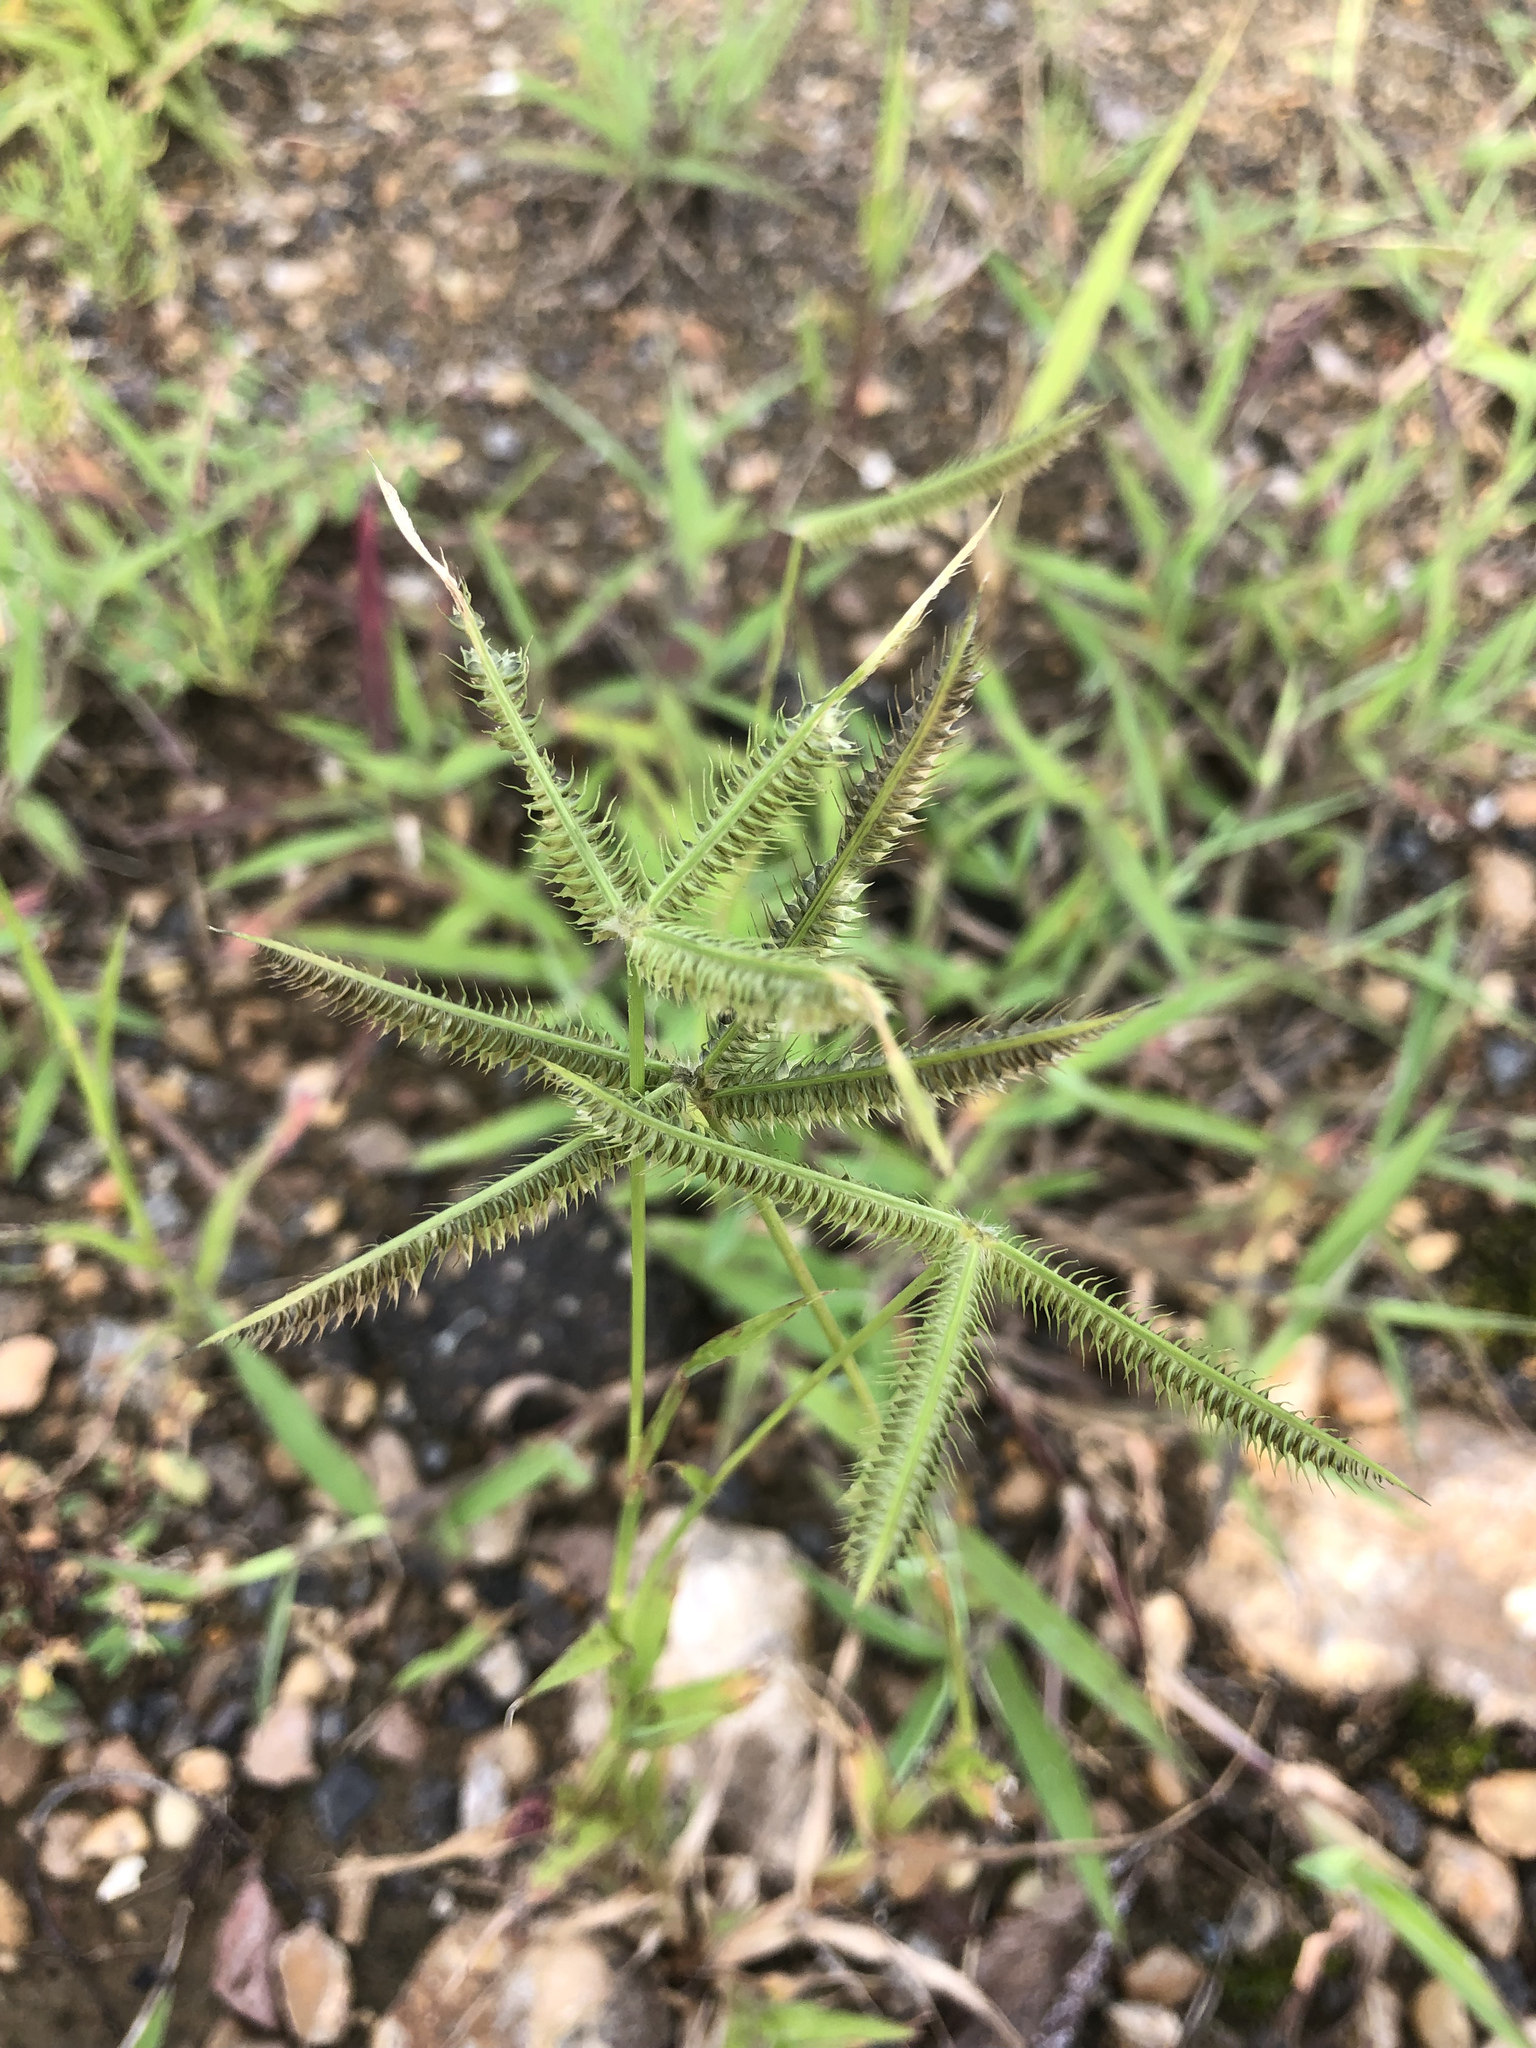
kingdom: Plantae
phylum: Tracheophyta
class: Liliopsida
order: Poales
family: Poaceae
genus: Dactyloctenium
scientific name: Dactyloctenium aegyptium
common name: Egyptian grass
